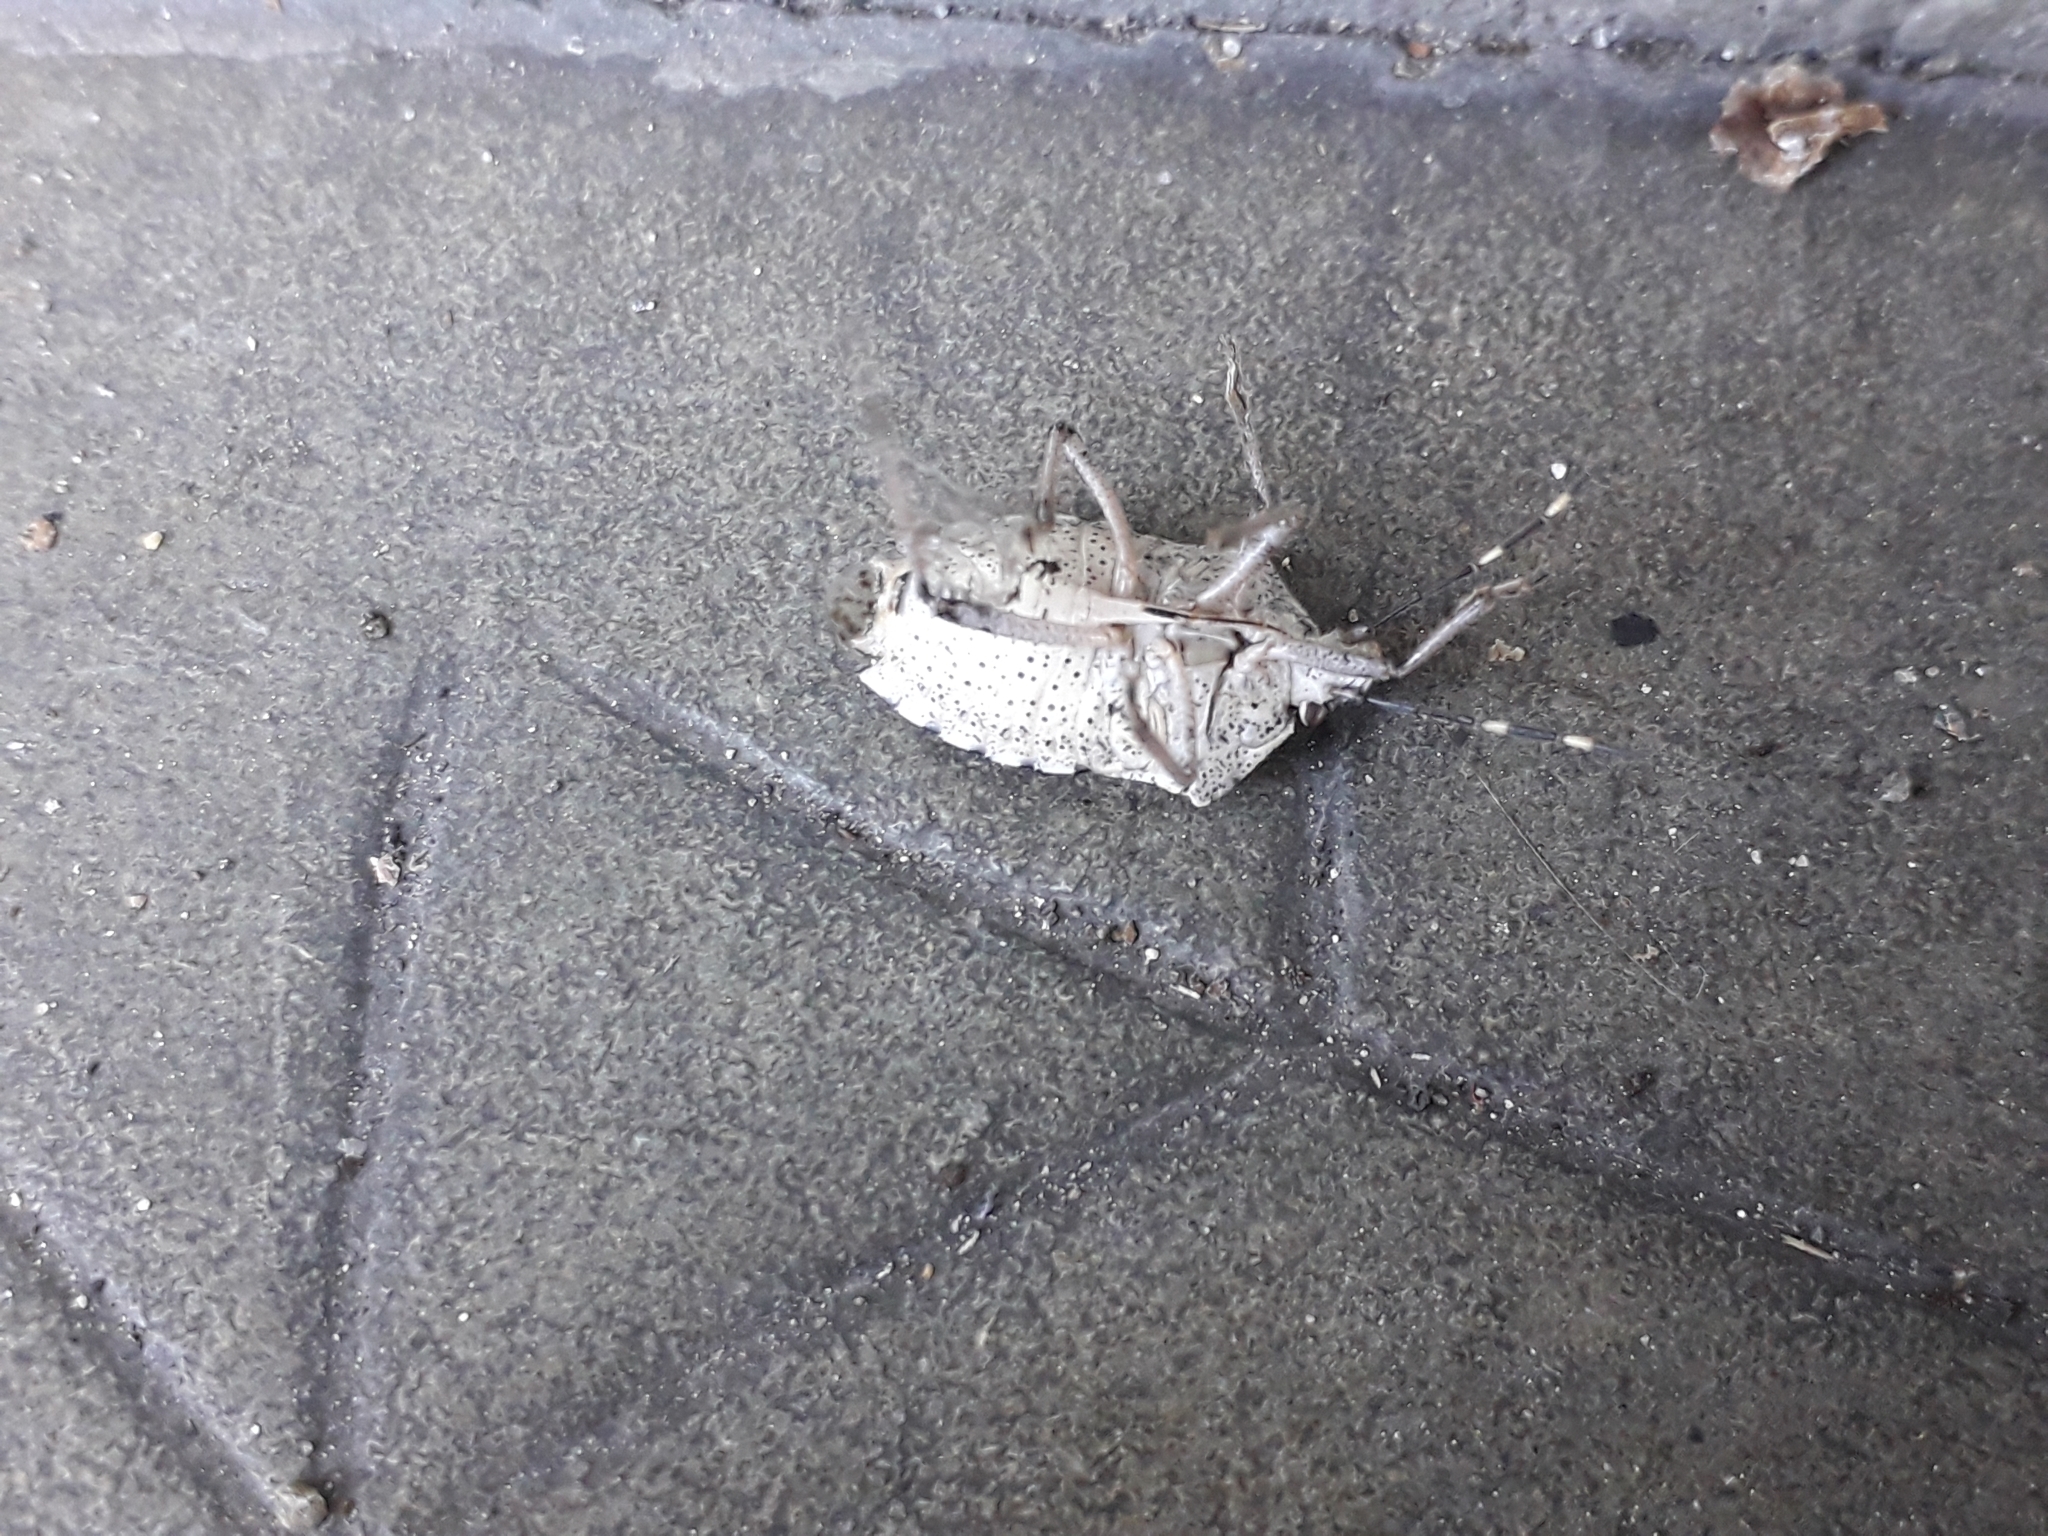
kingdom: Animalia
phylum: Arthropoda
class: Insecta
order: Hemiptera
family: Pentatomidae
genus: Rhaphigaster
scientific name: Rhaphigaster nebulosa
